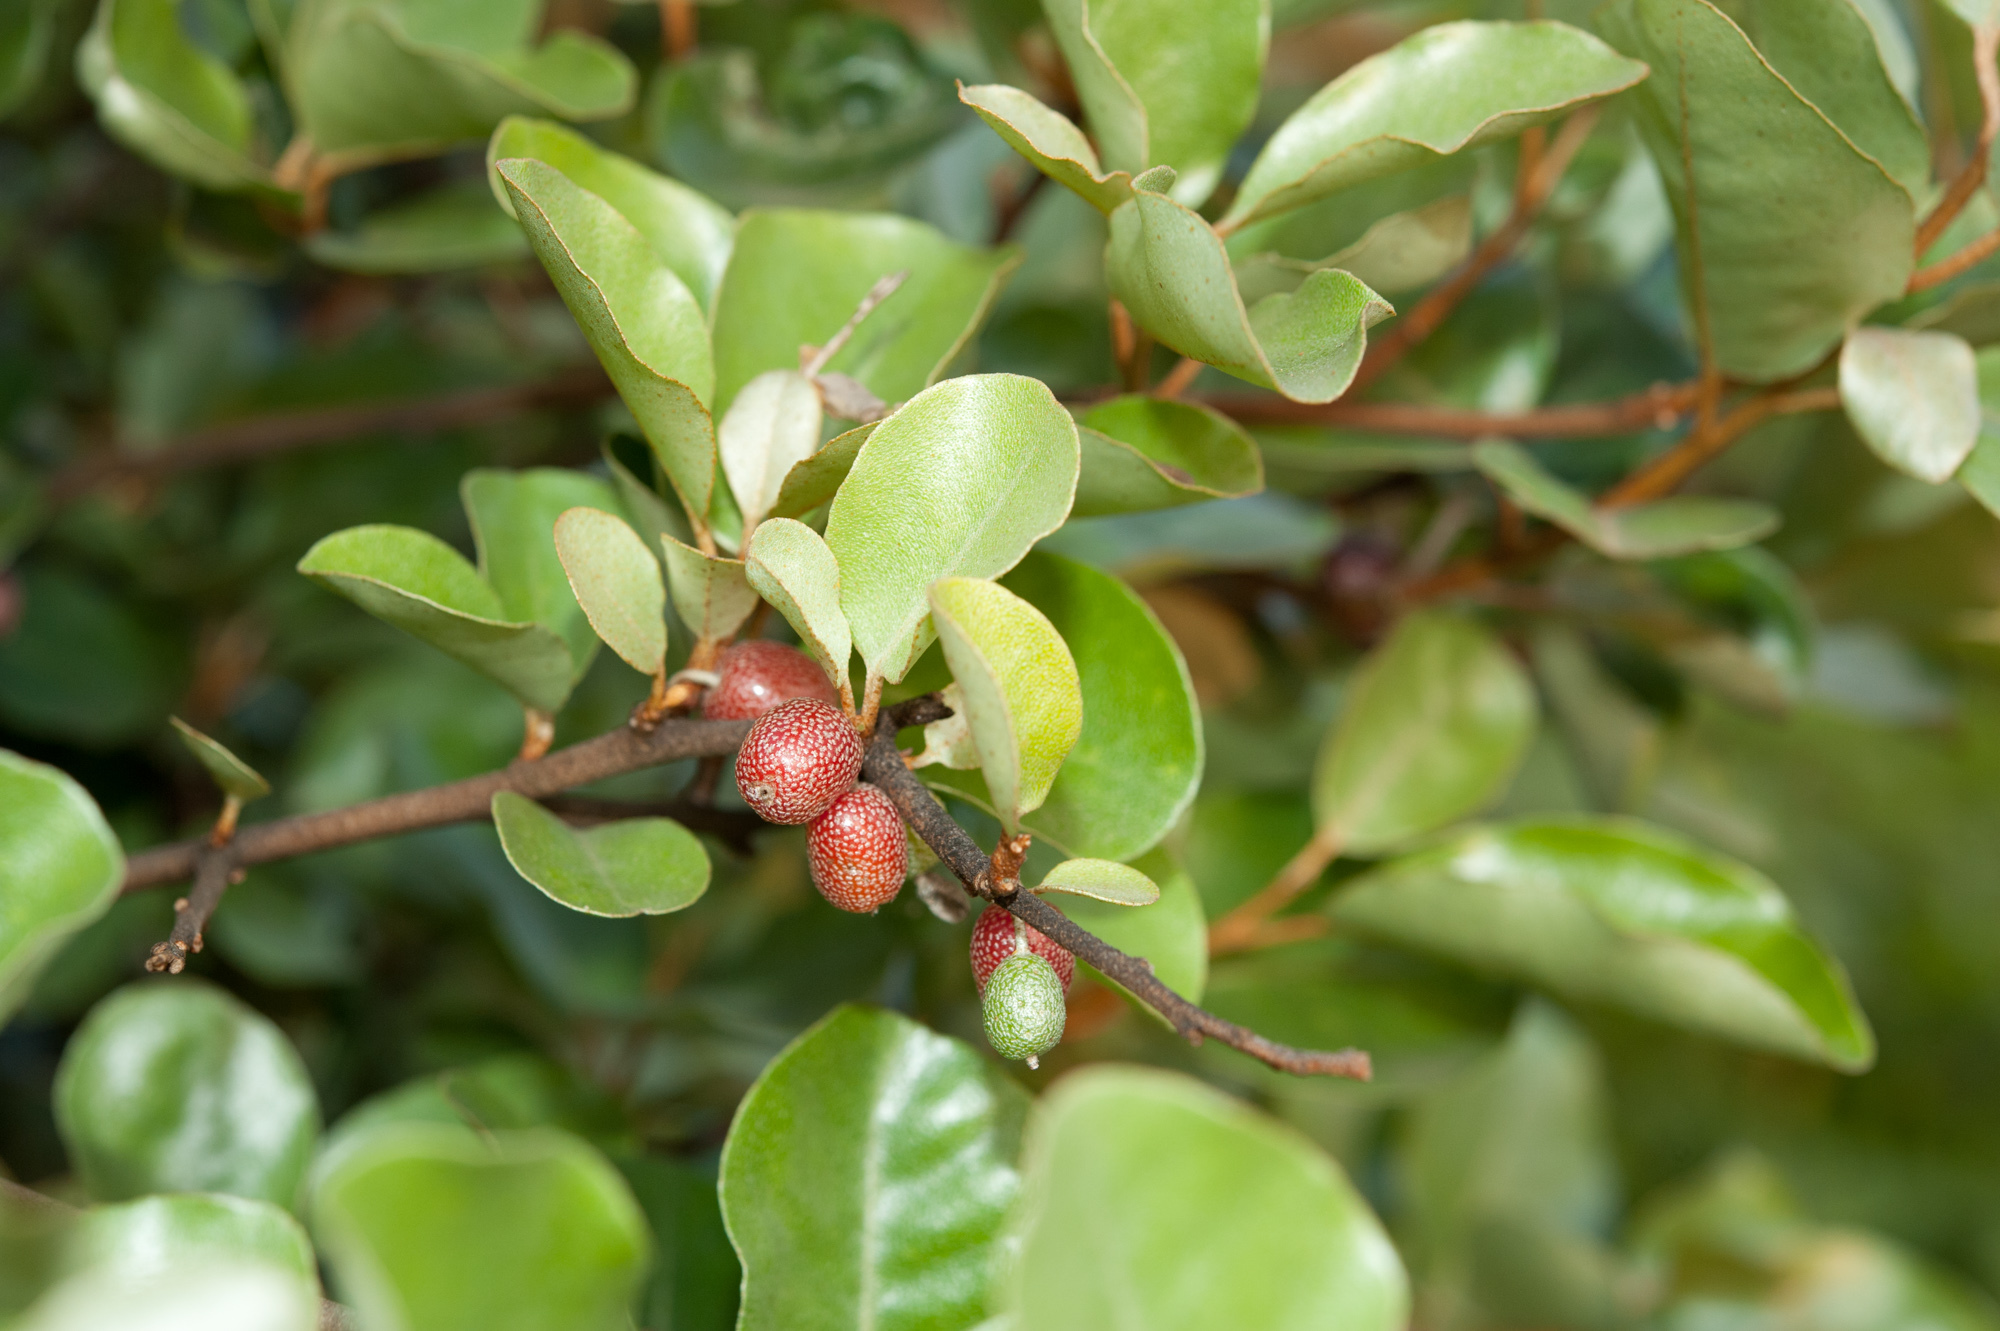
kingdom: Plantae
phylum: Tracheophyta
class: Magnoliopsida
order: Rosales
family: Elaeagnaceae
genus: Elaeagnus
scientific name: Elaeagnus oldhamii
